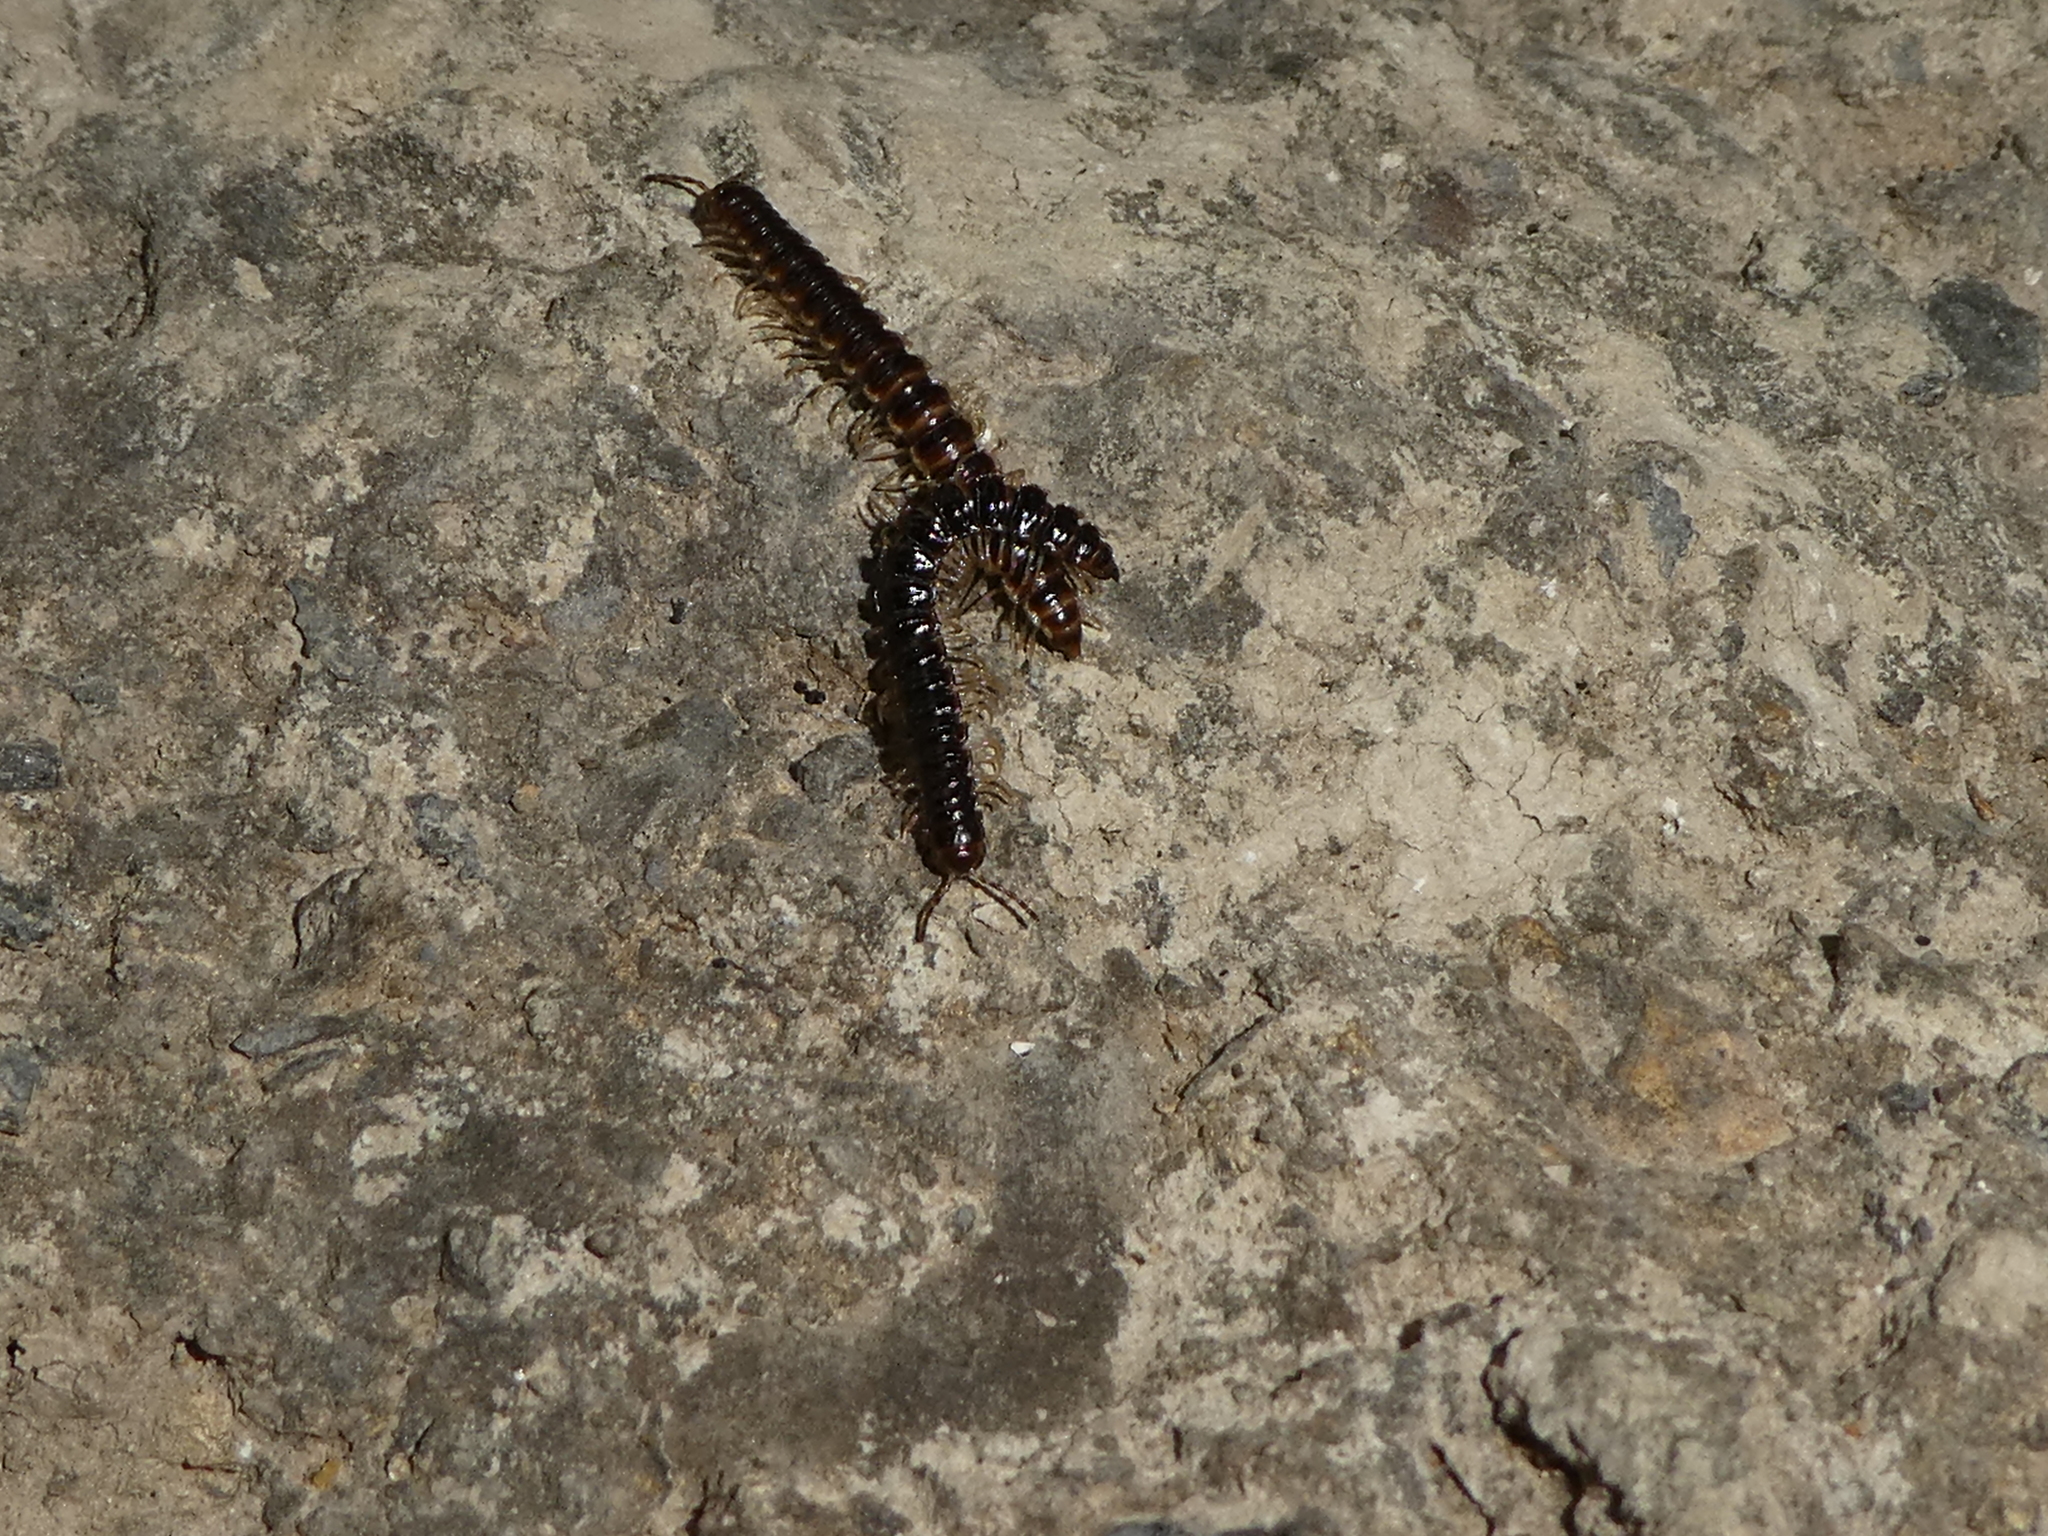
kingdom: Animalia
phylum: Arthropoda
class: Diplopoda
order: Polydesmida
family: Paradoxosomatidae
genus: Oxidus
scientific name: Oxidus gracilis
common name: Greenhouse millipede
